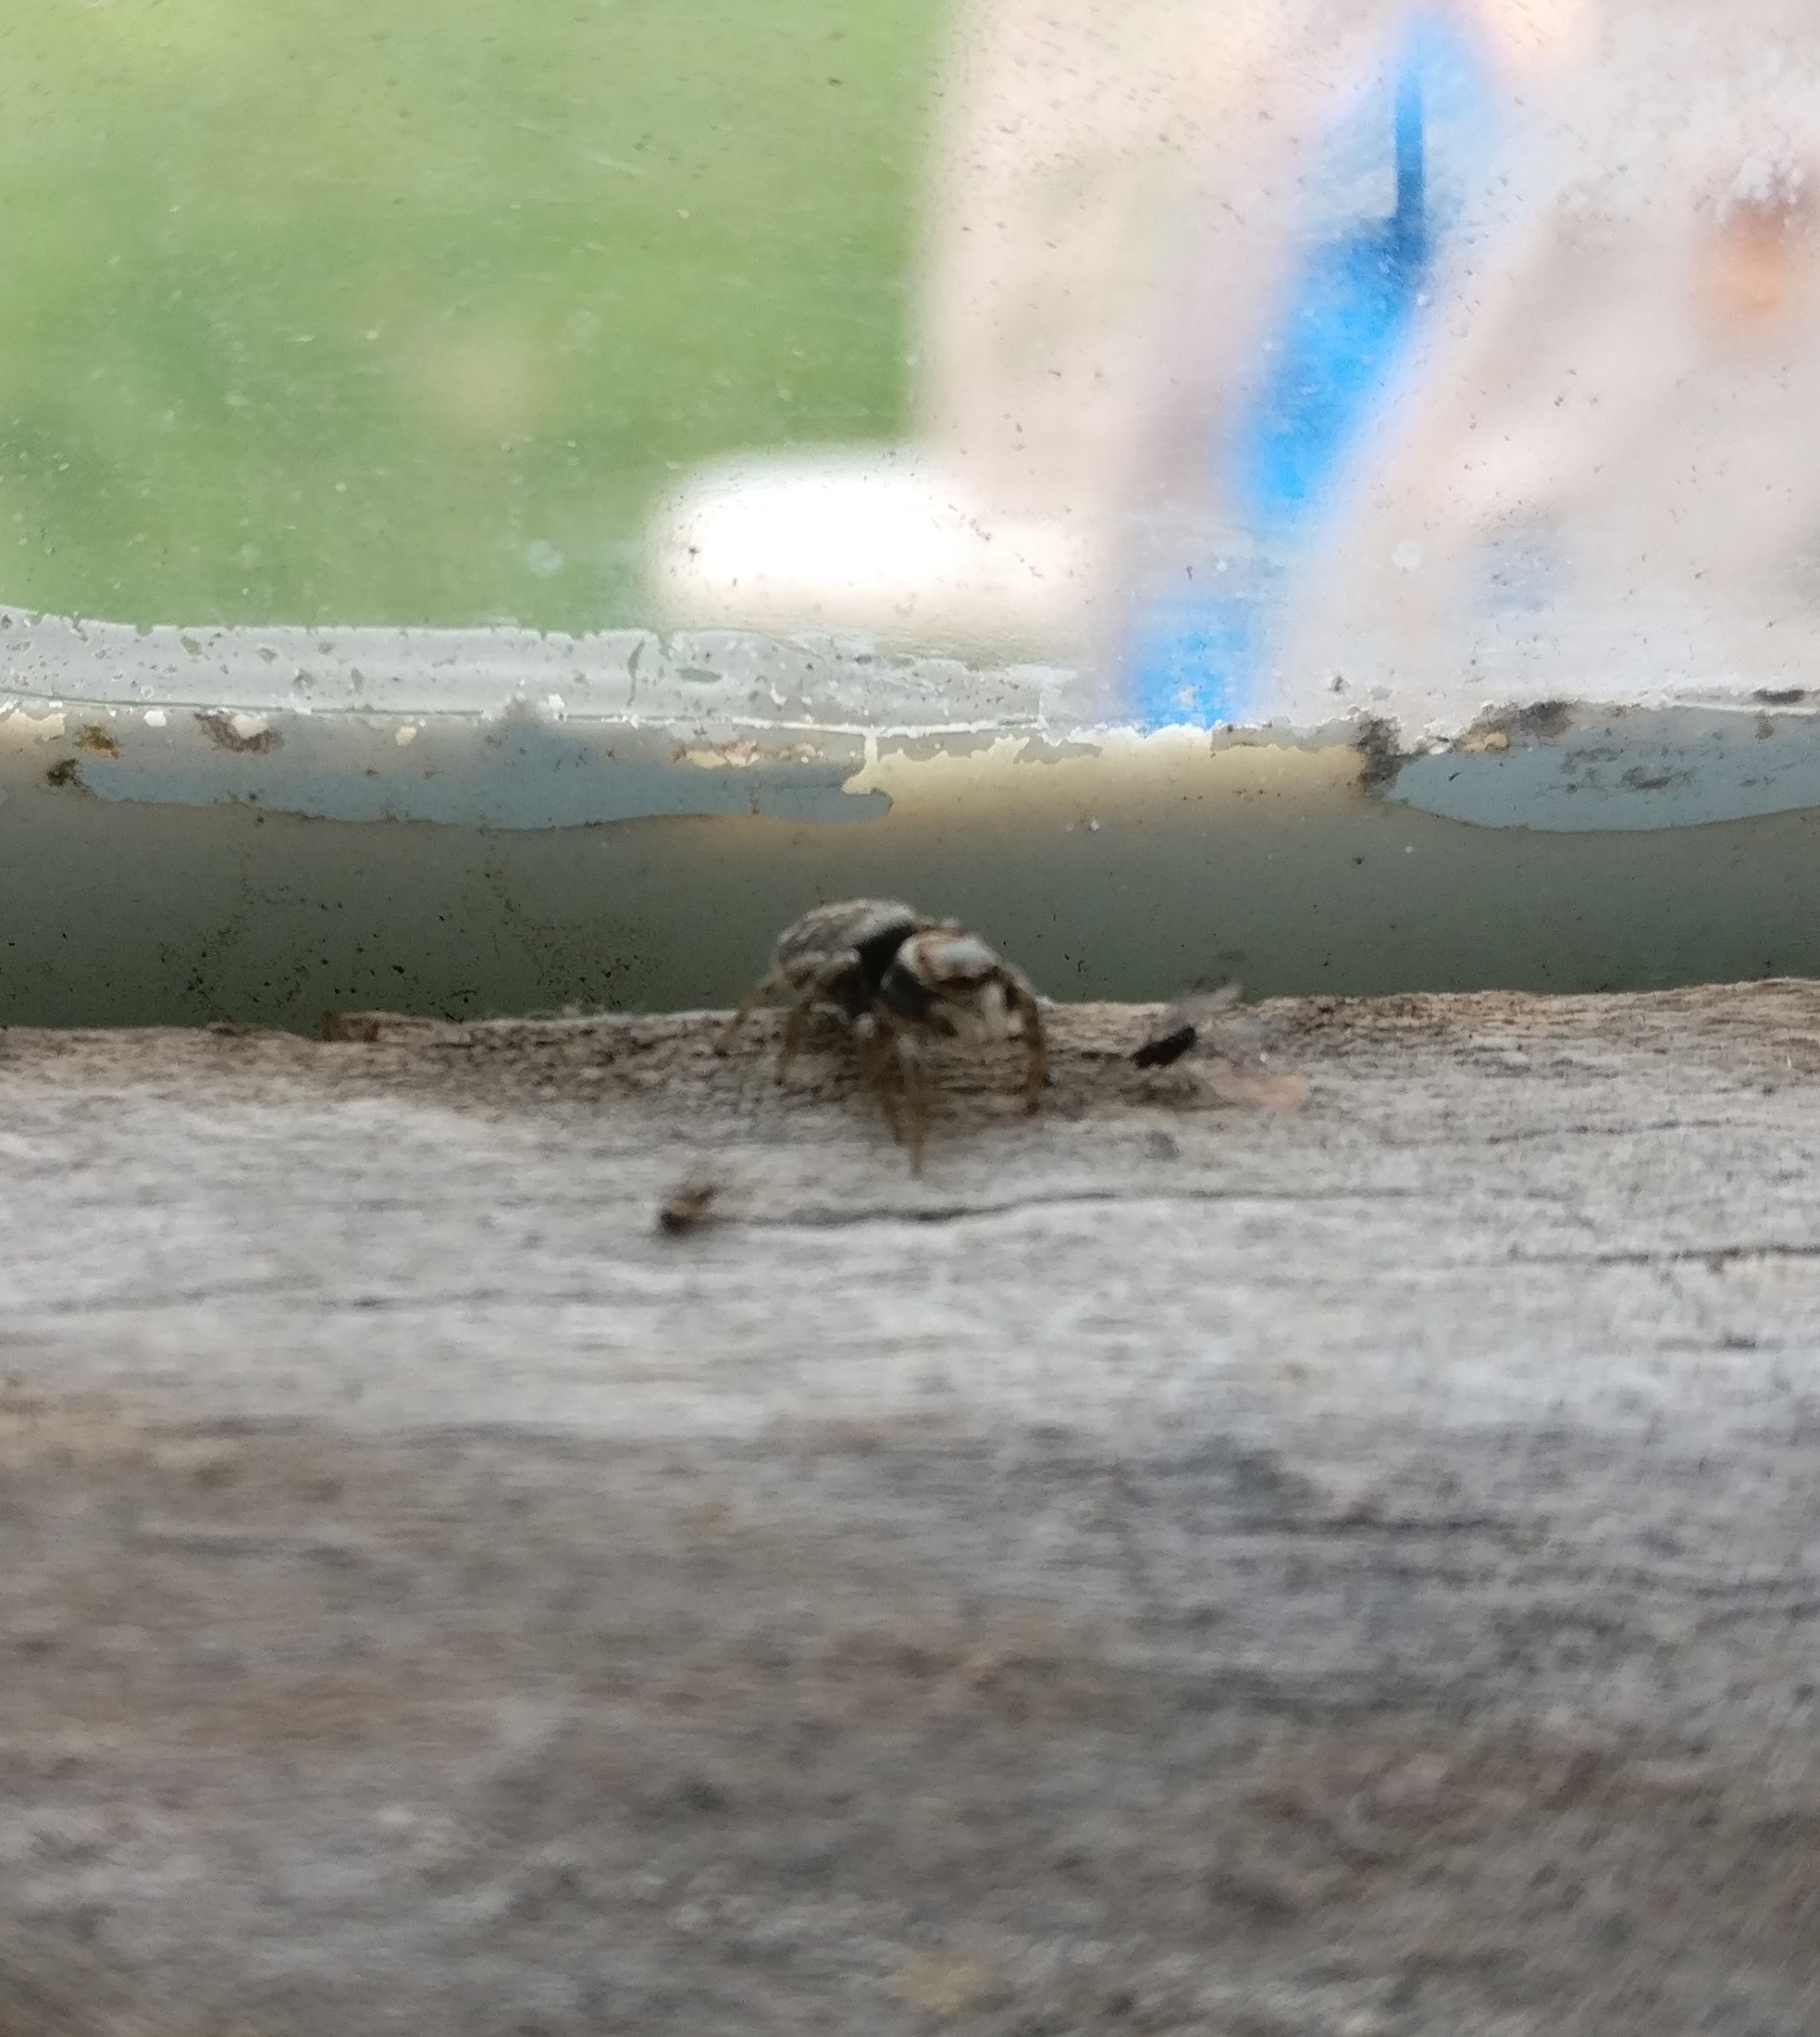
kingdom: Animalia
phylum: Arthropoda
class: Arachnida
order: Araneae
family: Salticidae
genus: Maratus
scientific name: Maratus griseus
